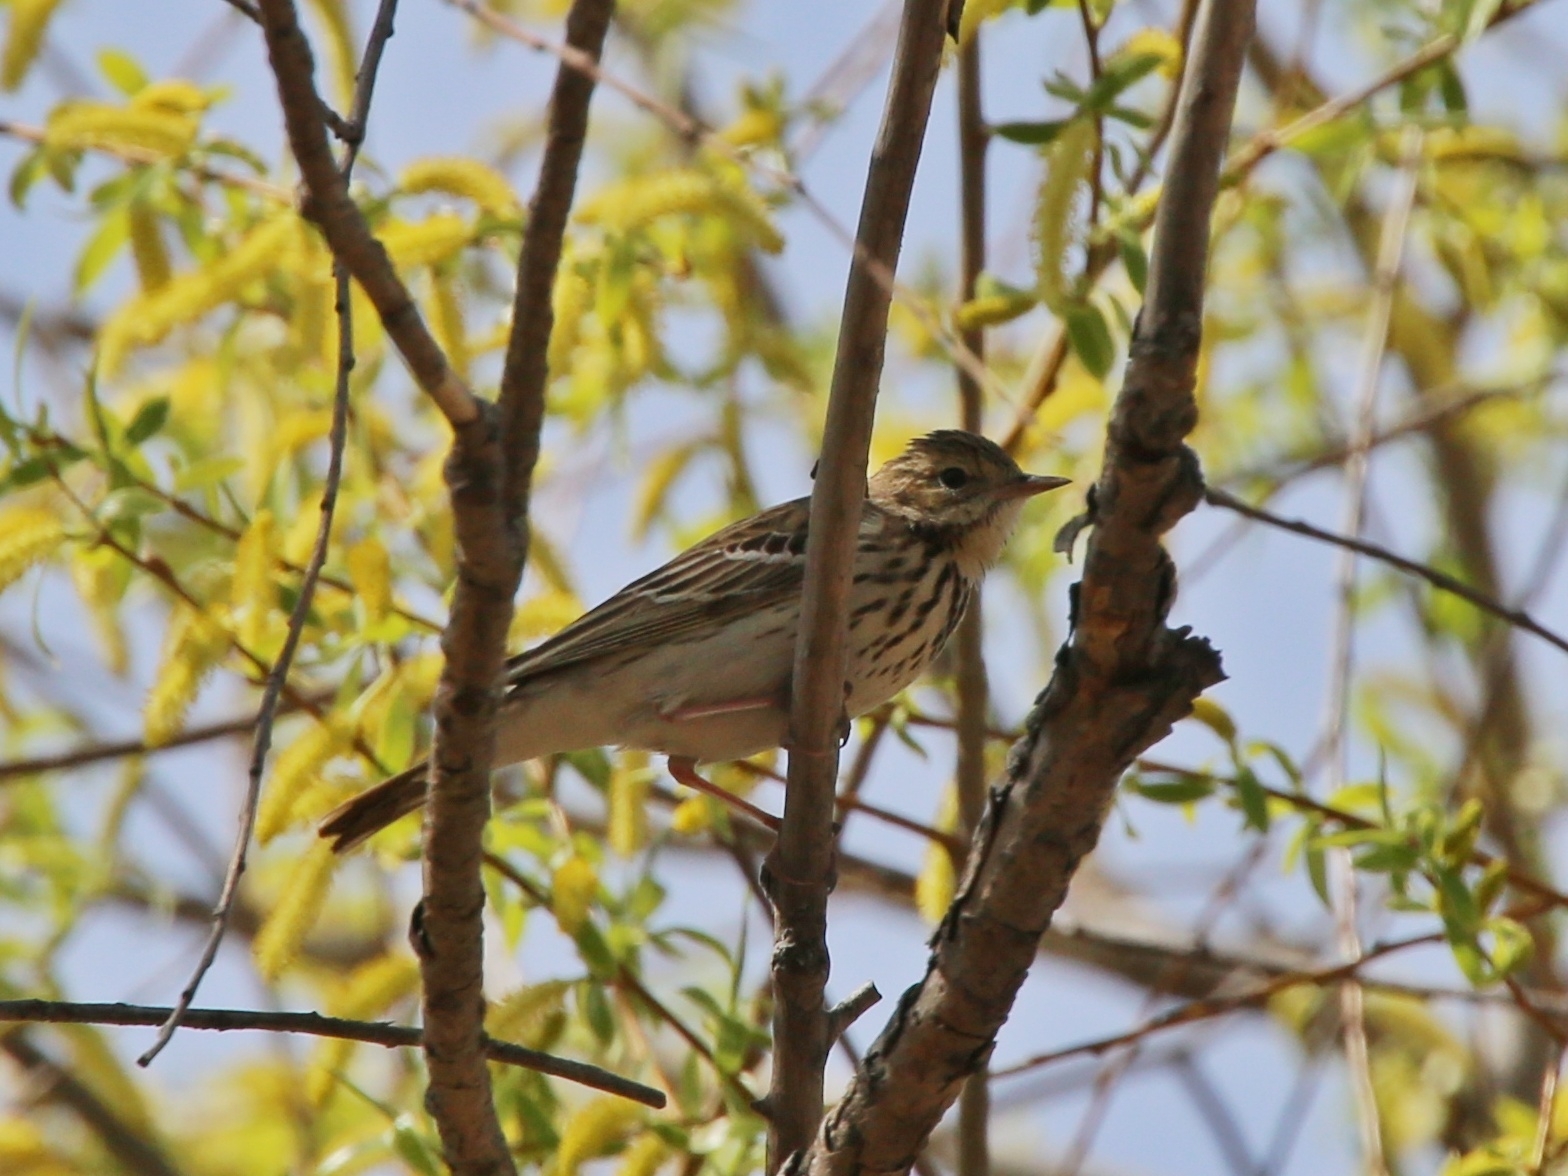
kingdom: Animalia
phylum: Chordata
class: Aves
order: Passeriformes
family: Motacillidae
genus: Anthus
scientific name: Anthus trivialis
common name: Tree pipit
